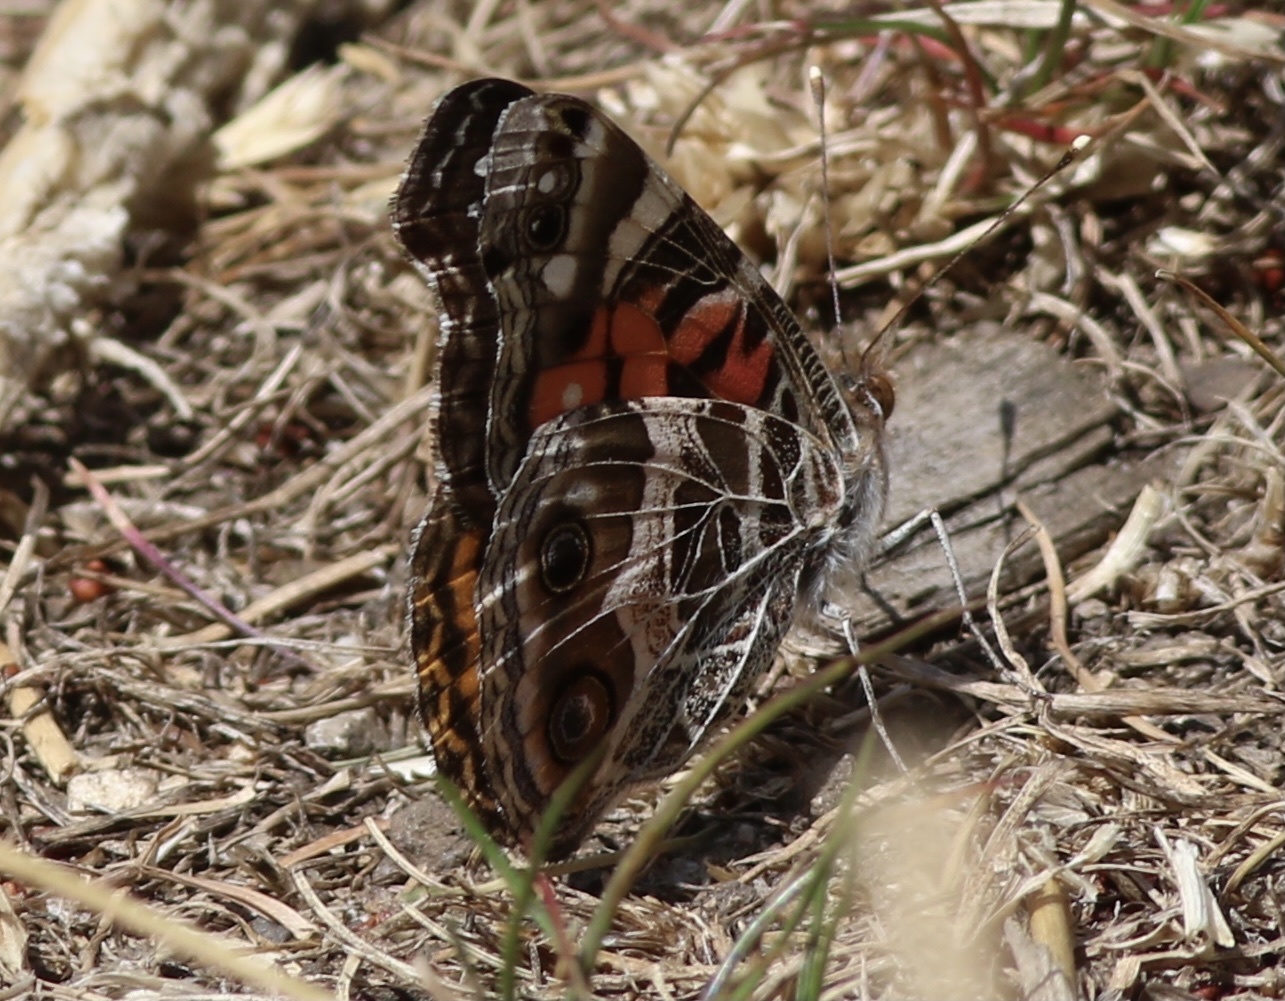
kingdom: Animalia
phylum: Arthropoda
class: Insecta
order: Lepidoptera
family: Nymphalidae
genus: Vanessa
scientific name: Vanessa virginiensis
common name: American lady
